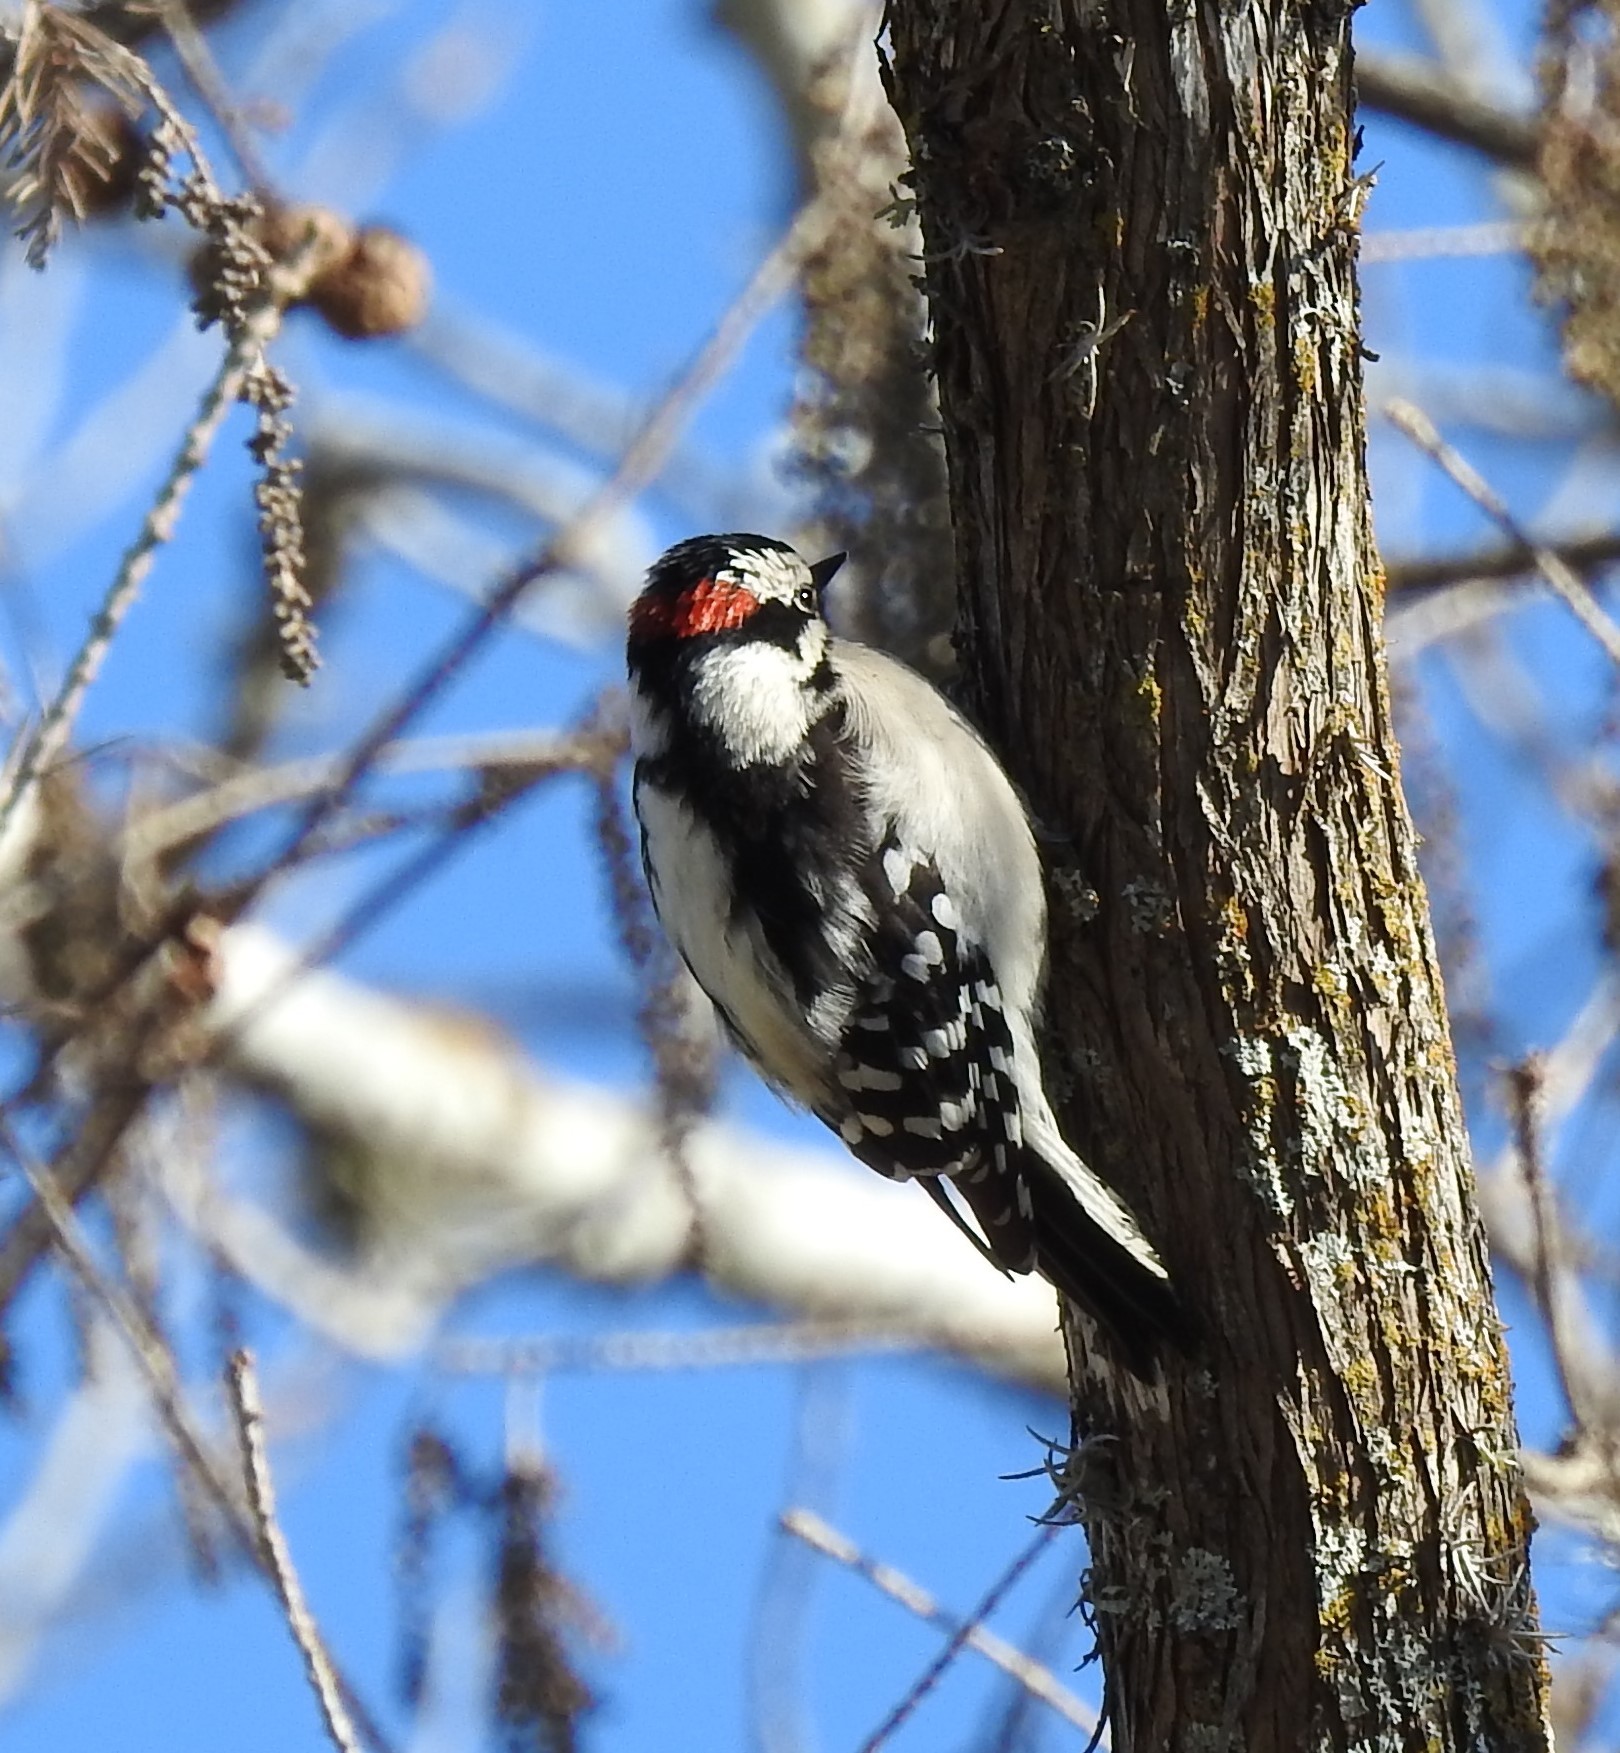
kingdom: Animalia
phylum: Chordata
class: Aves
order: Piciformes
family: Picidae
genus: Dryobates
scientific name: Dryobates pubescens
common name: Downy woodpecker
